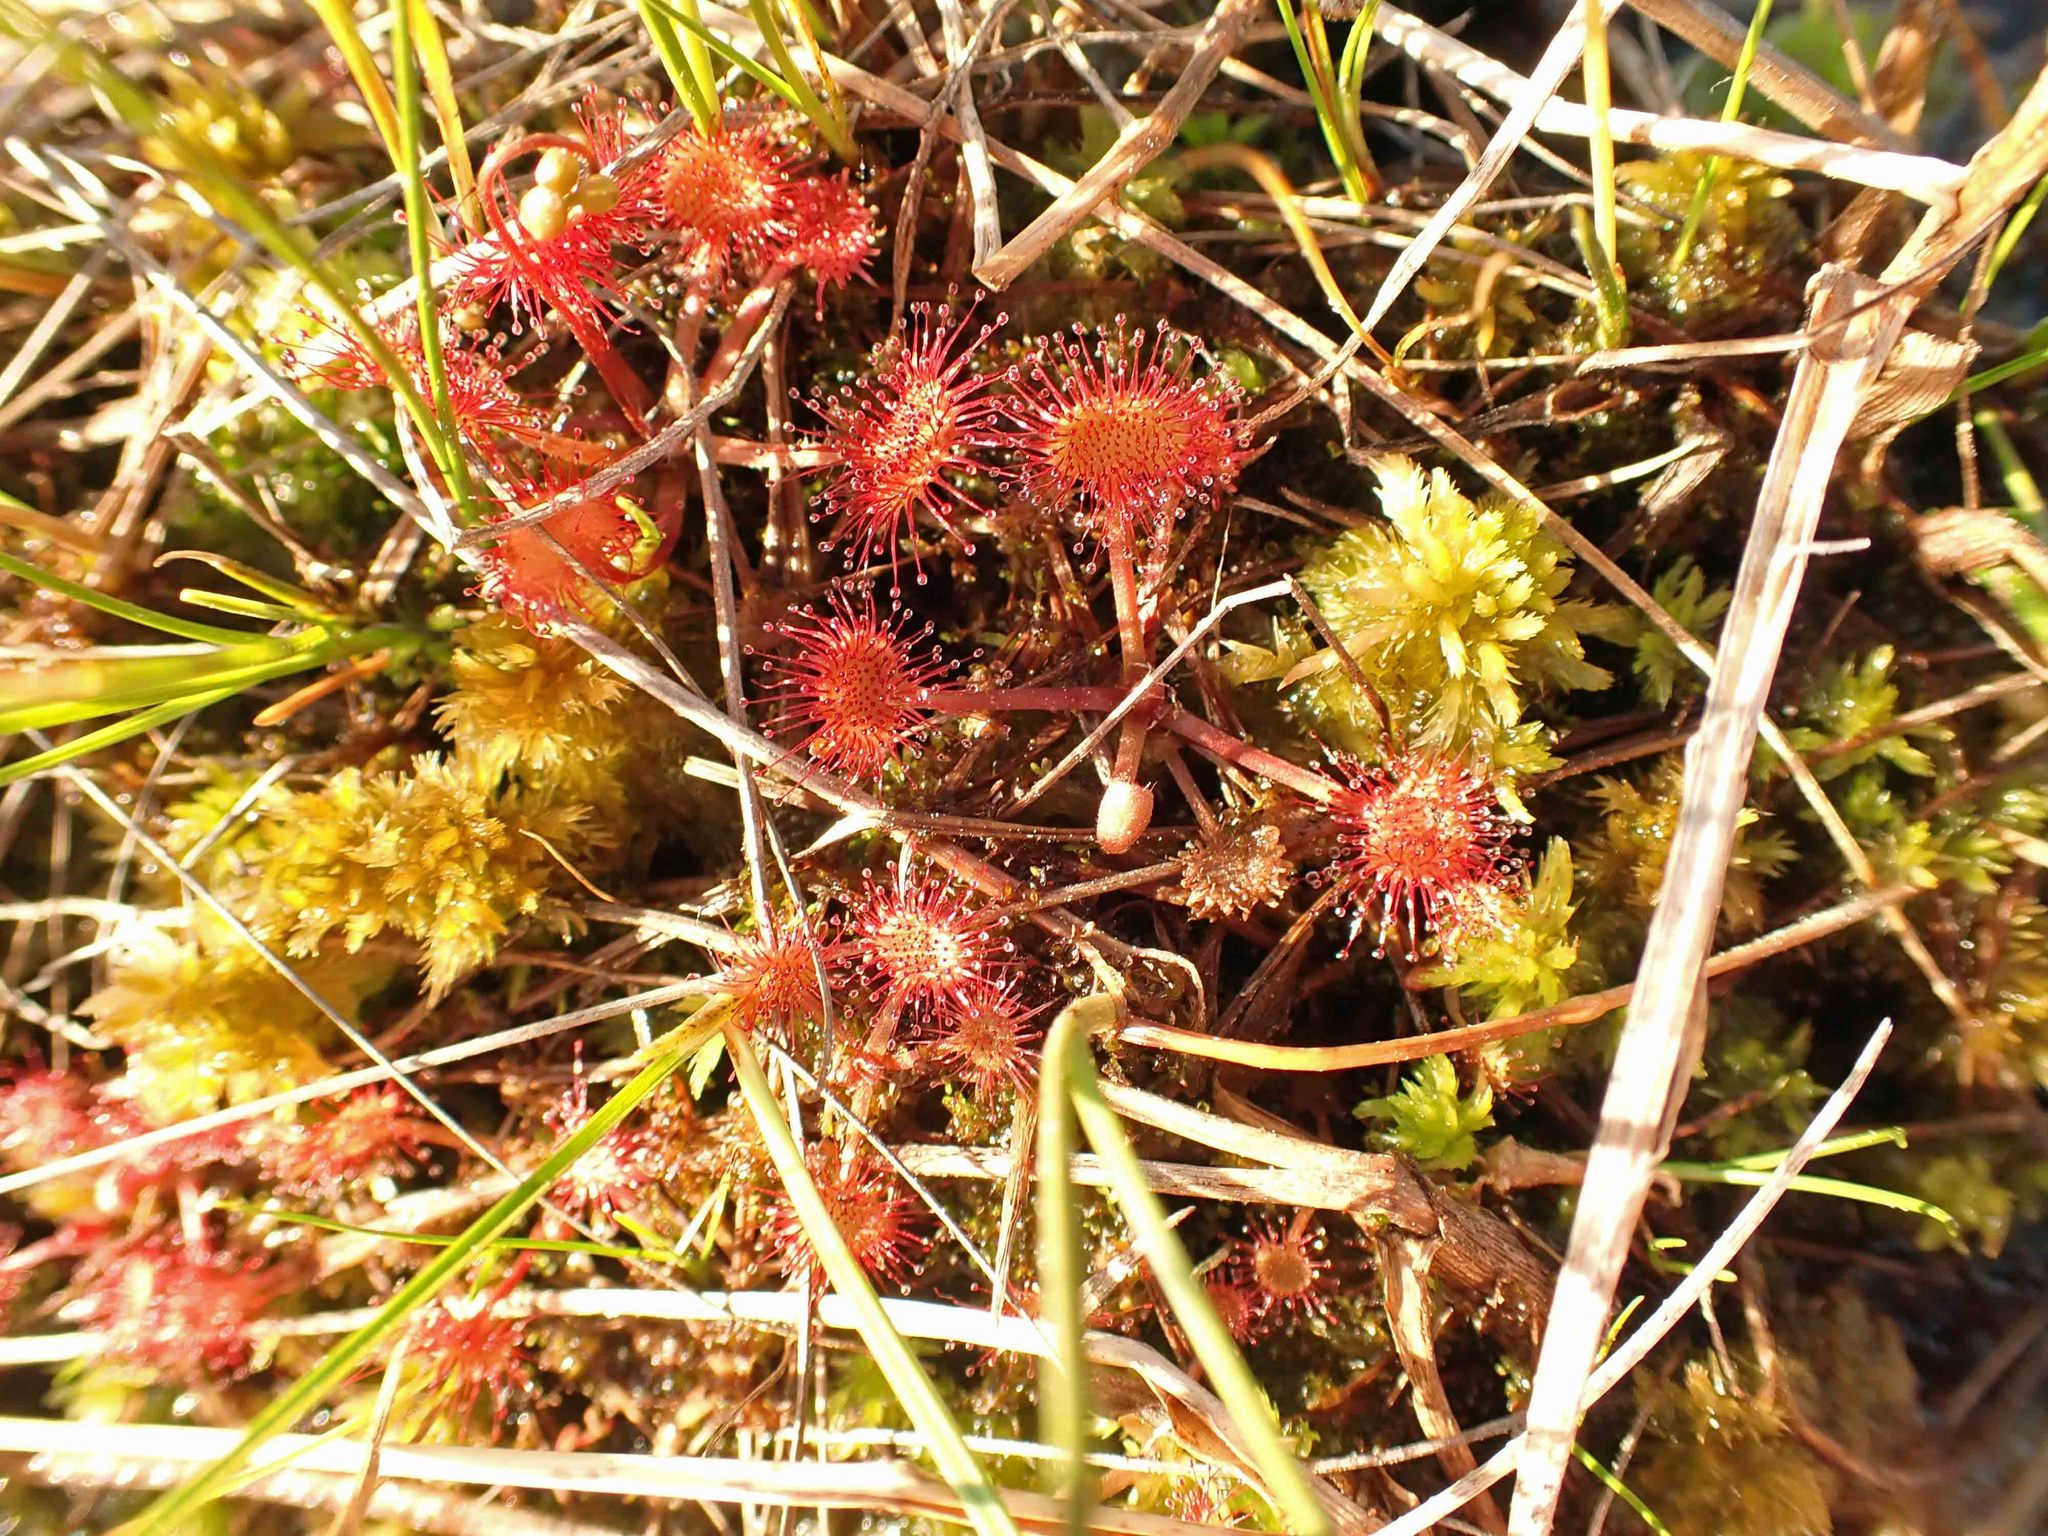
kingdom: Plantae
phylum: Tracheophyta
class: Magnoliopsida
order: Caryophyllales
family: Droseraceae
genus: Drosera
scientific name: Drosera rotundifolia
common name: Round-leaved sundew
